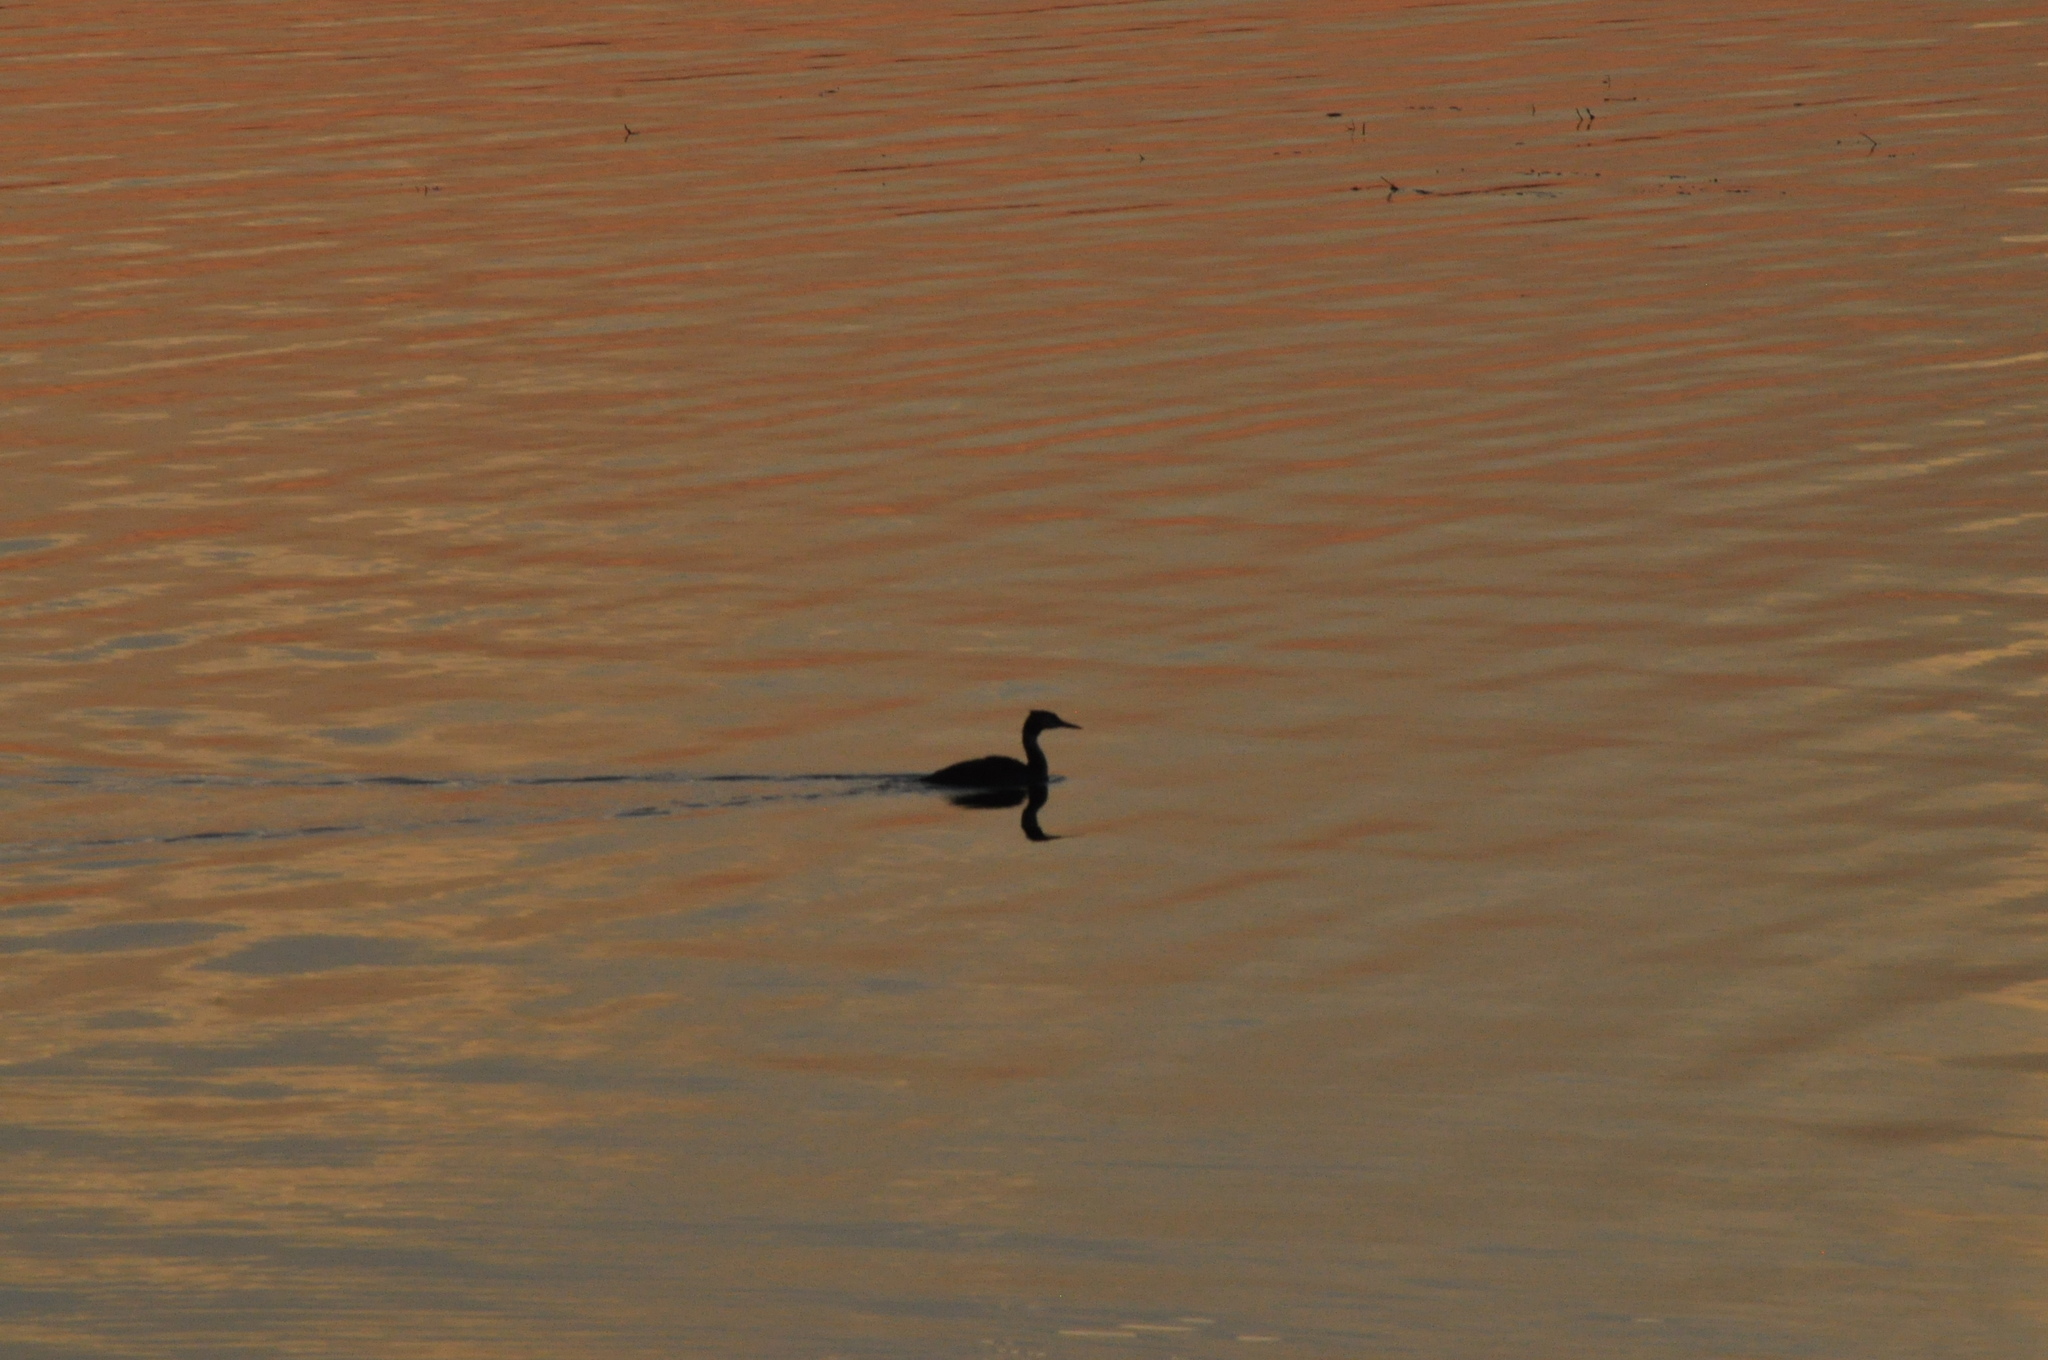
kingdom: Animalia
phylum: Chordata
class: Aves
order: Podicipediformes
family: Podicipedidae
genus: Podiceps
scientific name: Podiceps cristatus
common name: Great crested grebe
